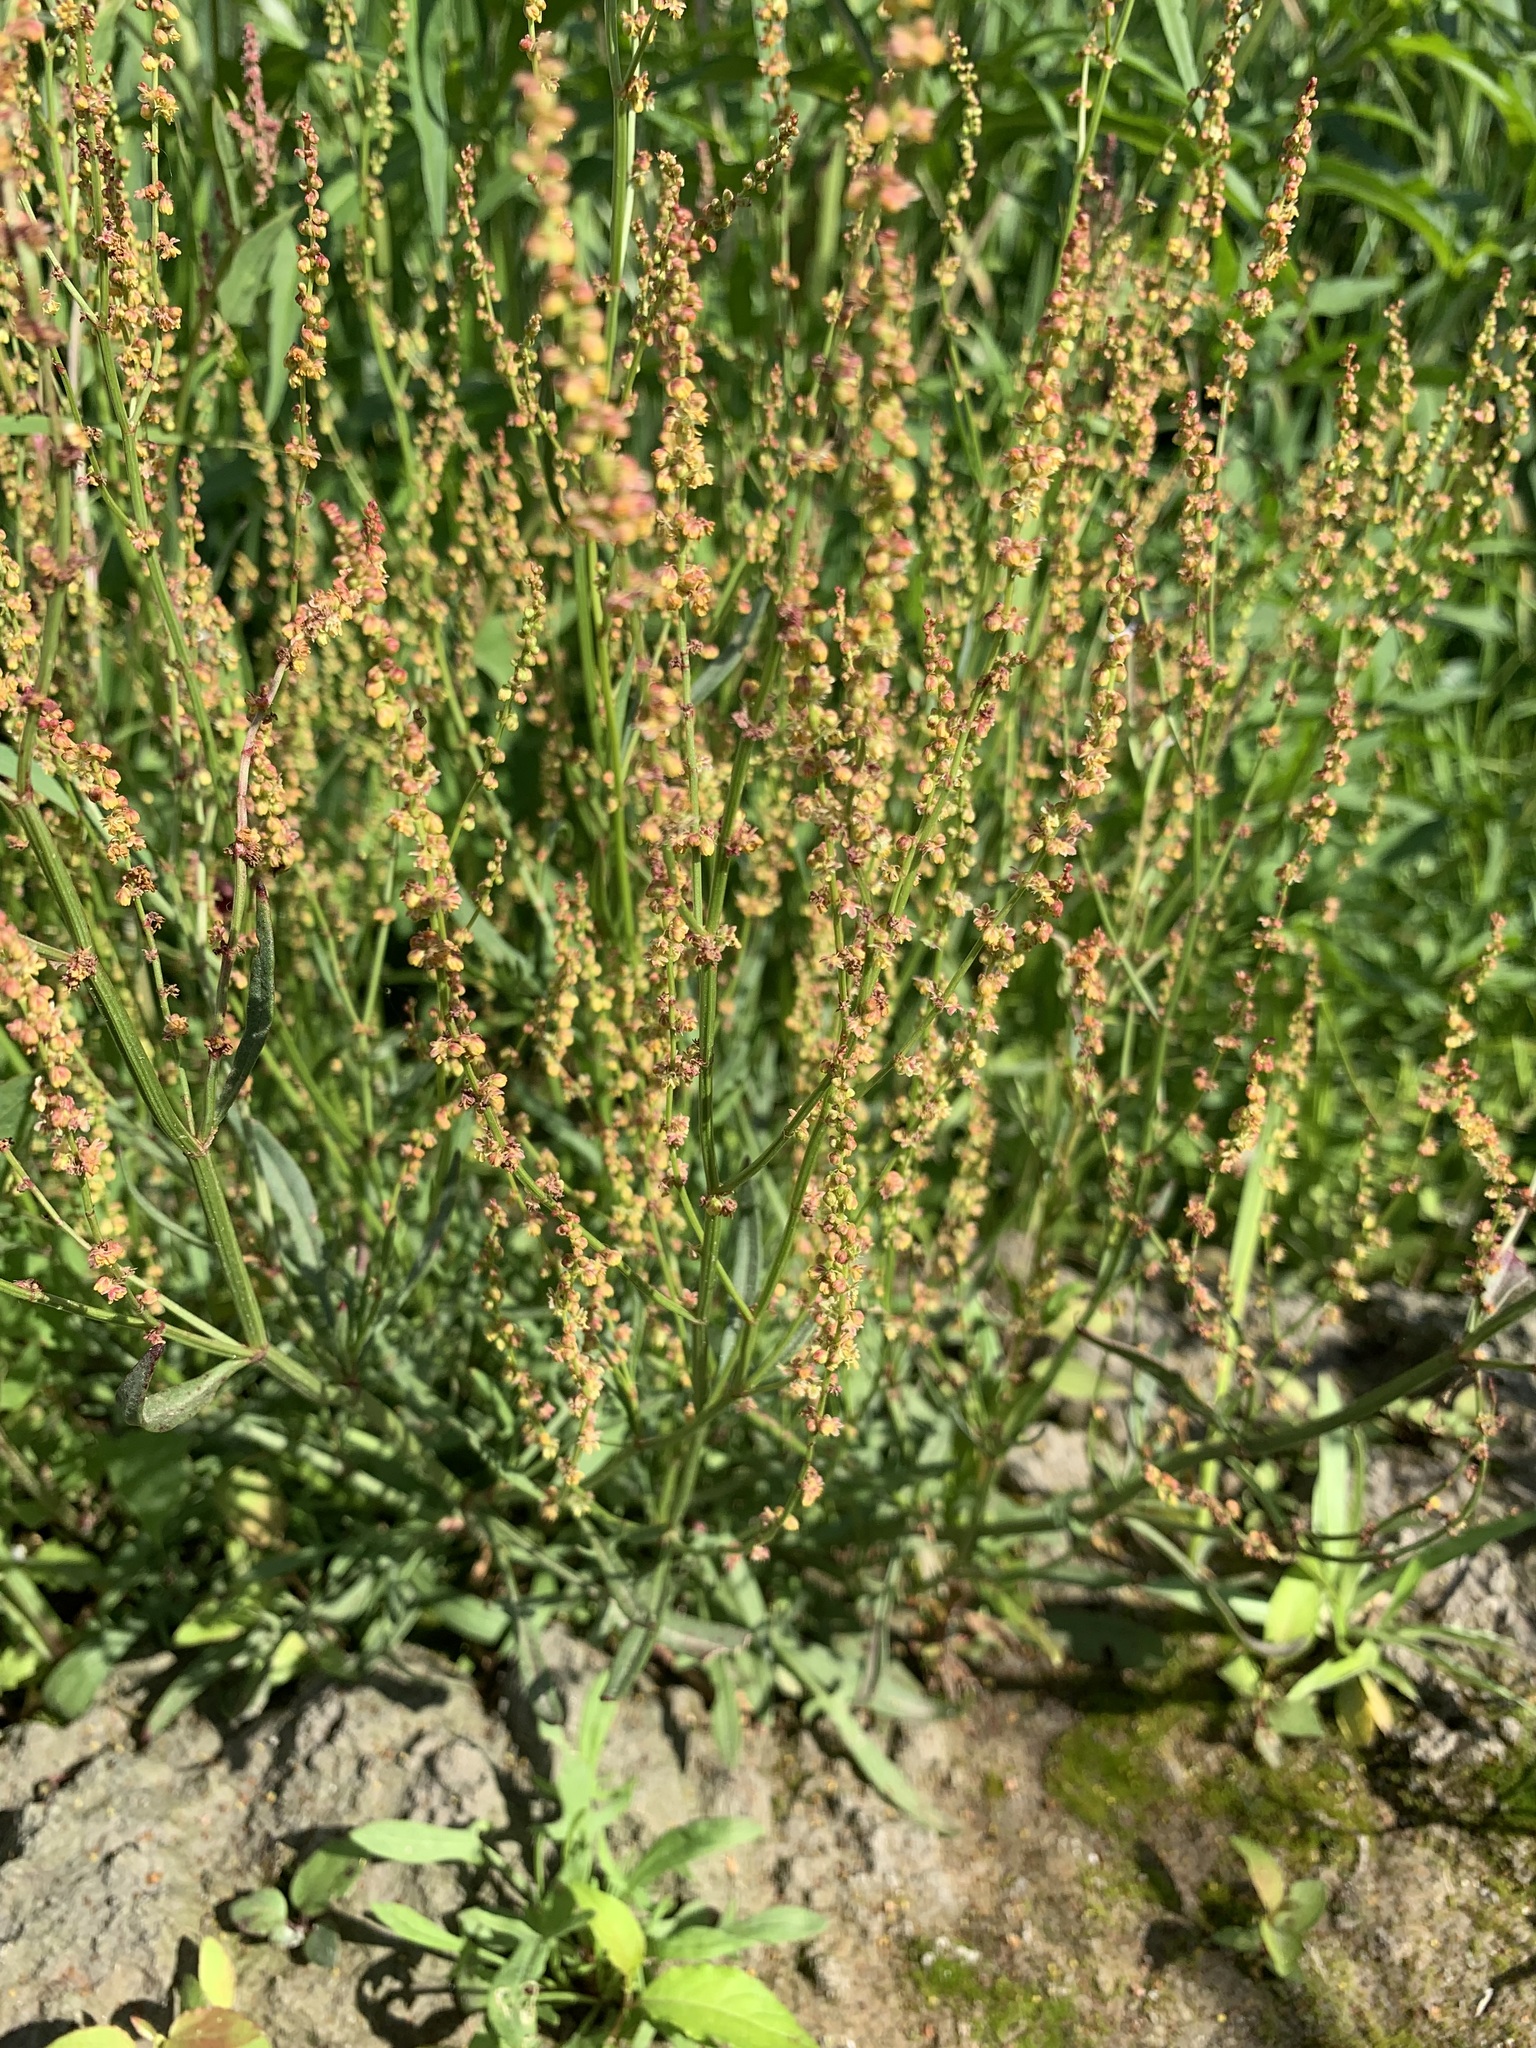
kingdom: Plantae
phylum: Tracheophyta
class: Magnoliopsida
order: Caryophyllales
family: Polygonaceae
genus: Rumex
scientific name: Rumex acetosella
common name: Common sheep sorrel
